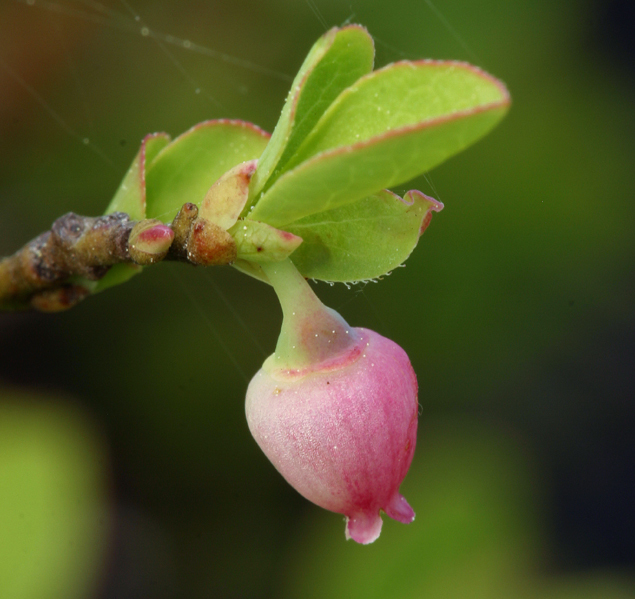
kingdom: Plantae
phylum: Tracheophyta
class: Magnoliopsida
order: Ericales
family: Ericaceae
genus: Vaccinium
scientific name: Vaccinium cespitosum
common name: Dwarf bilberry
